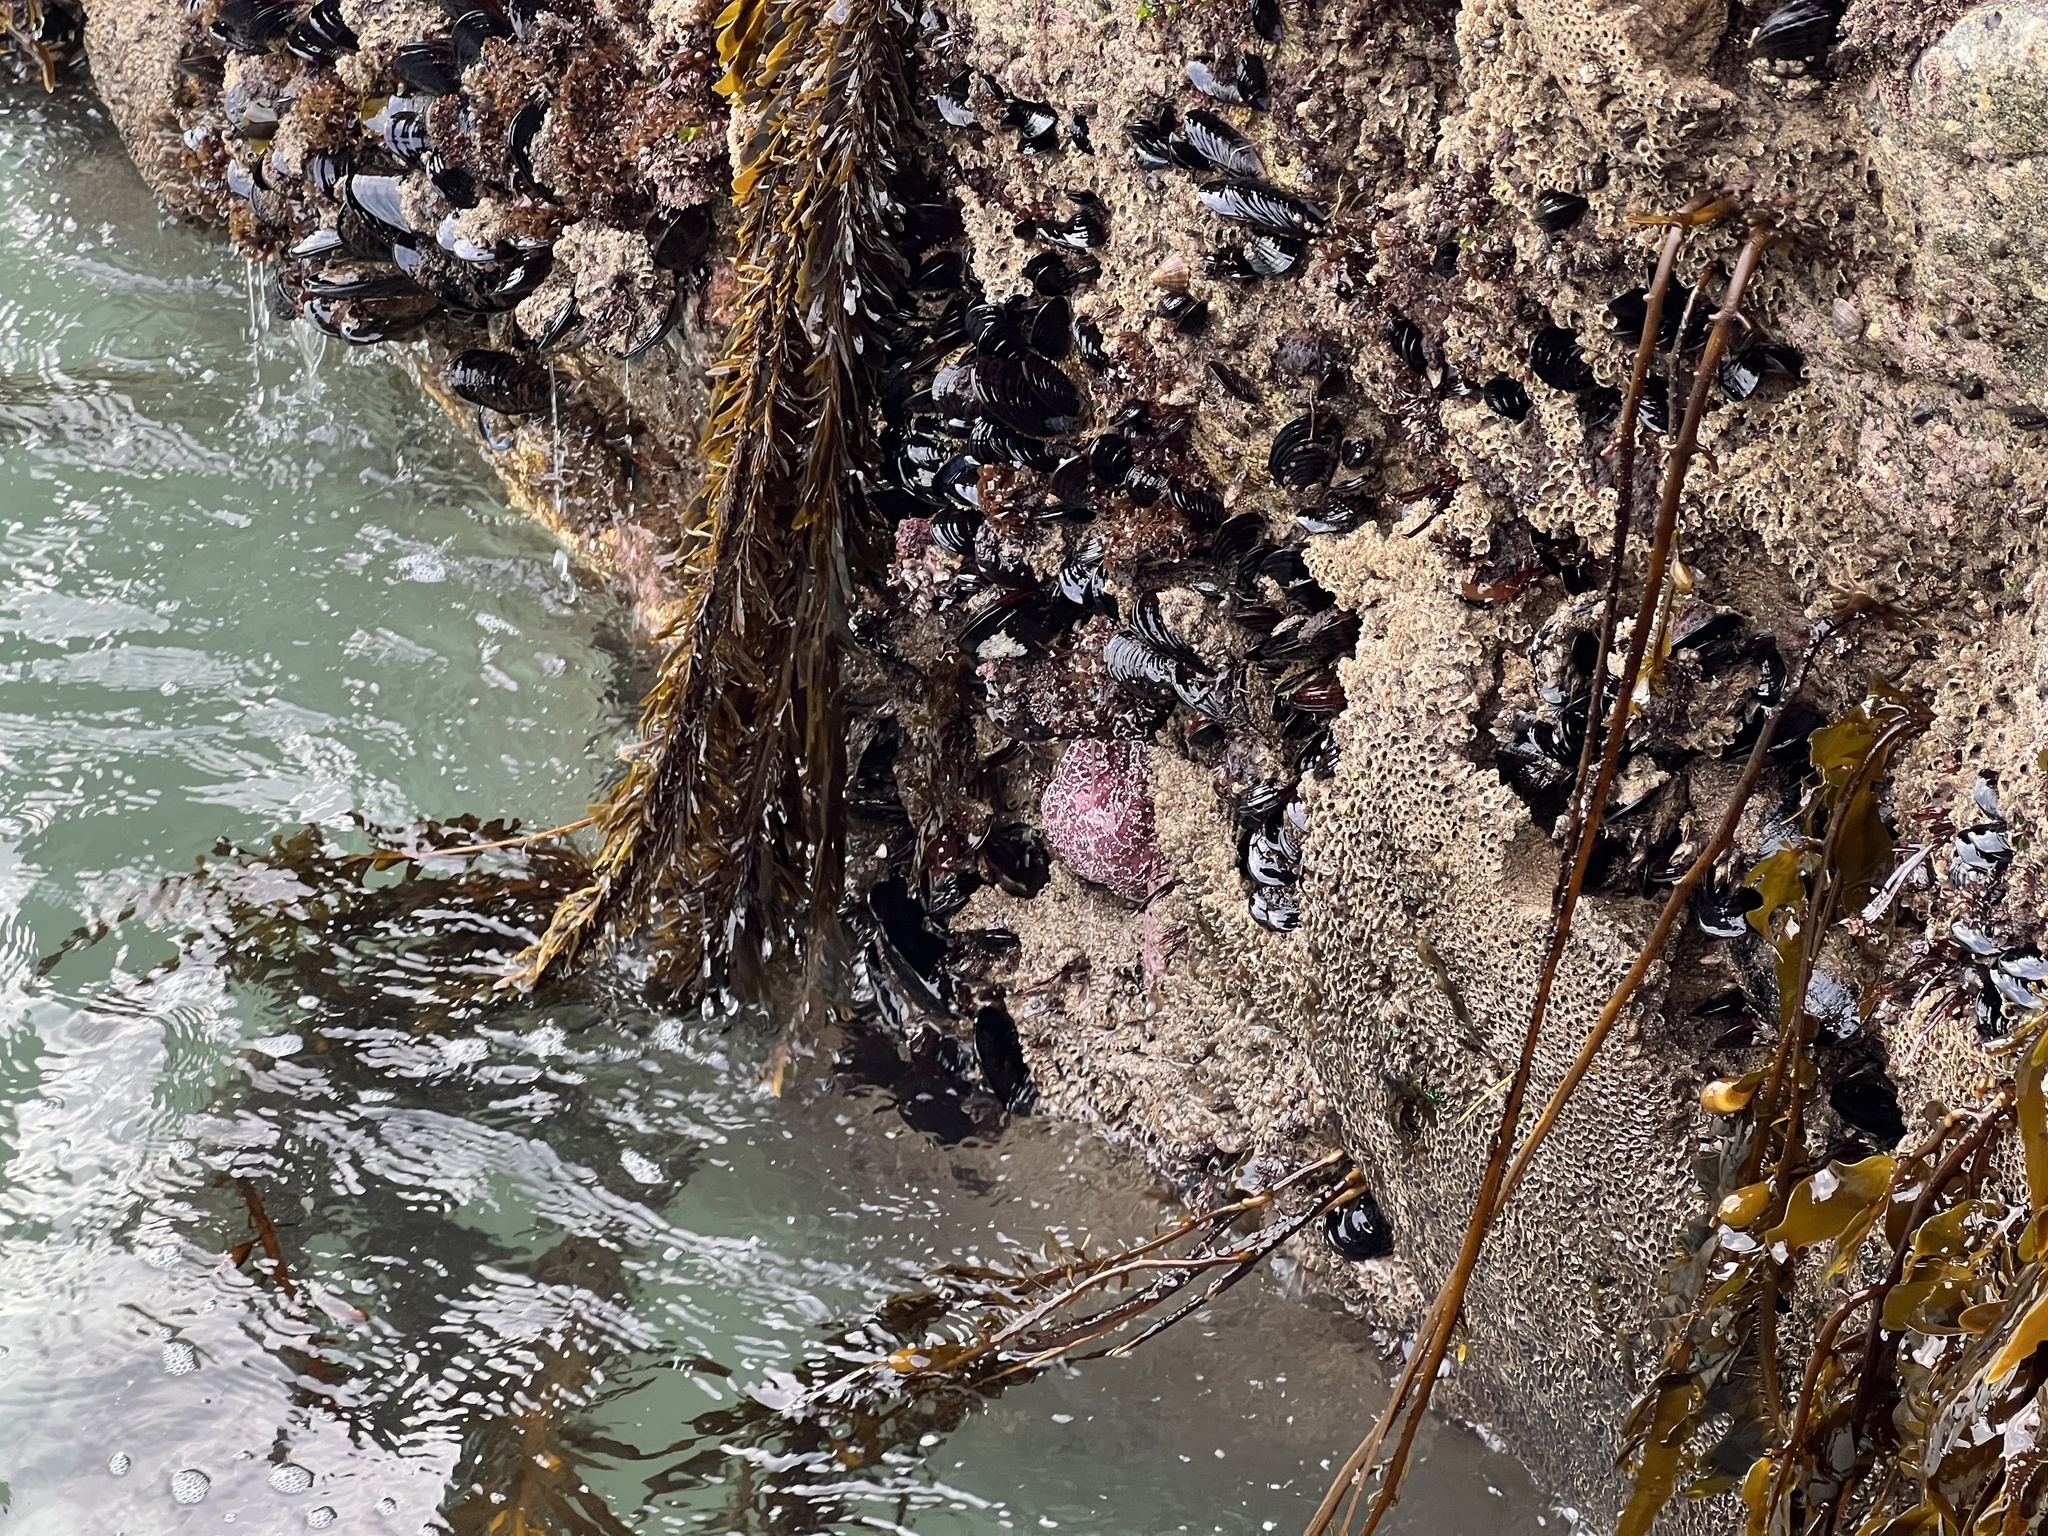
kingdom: Animalia
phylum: Echinodermata
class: Asteroidea
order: Forcipulatida
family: Asteriidae
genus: Pisaster
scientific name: Pisaster ochraceus
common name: Ochre stars
